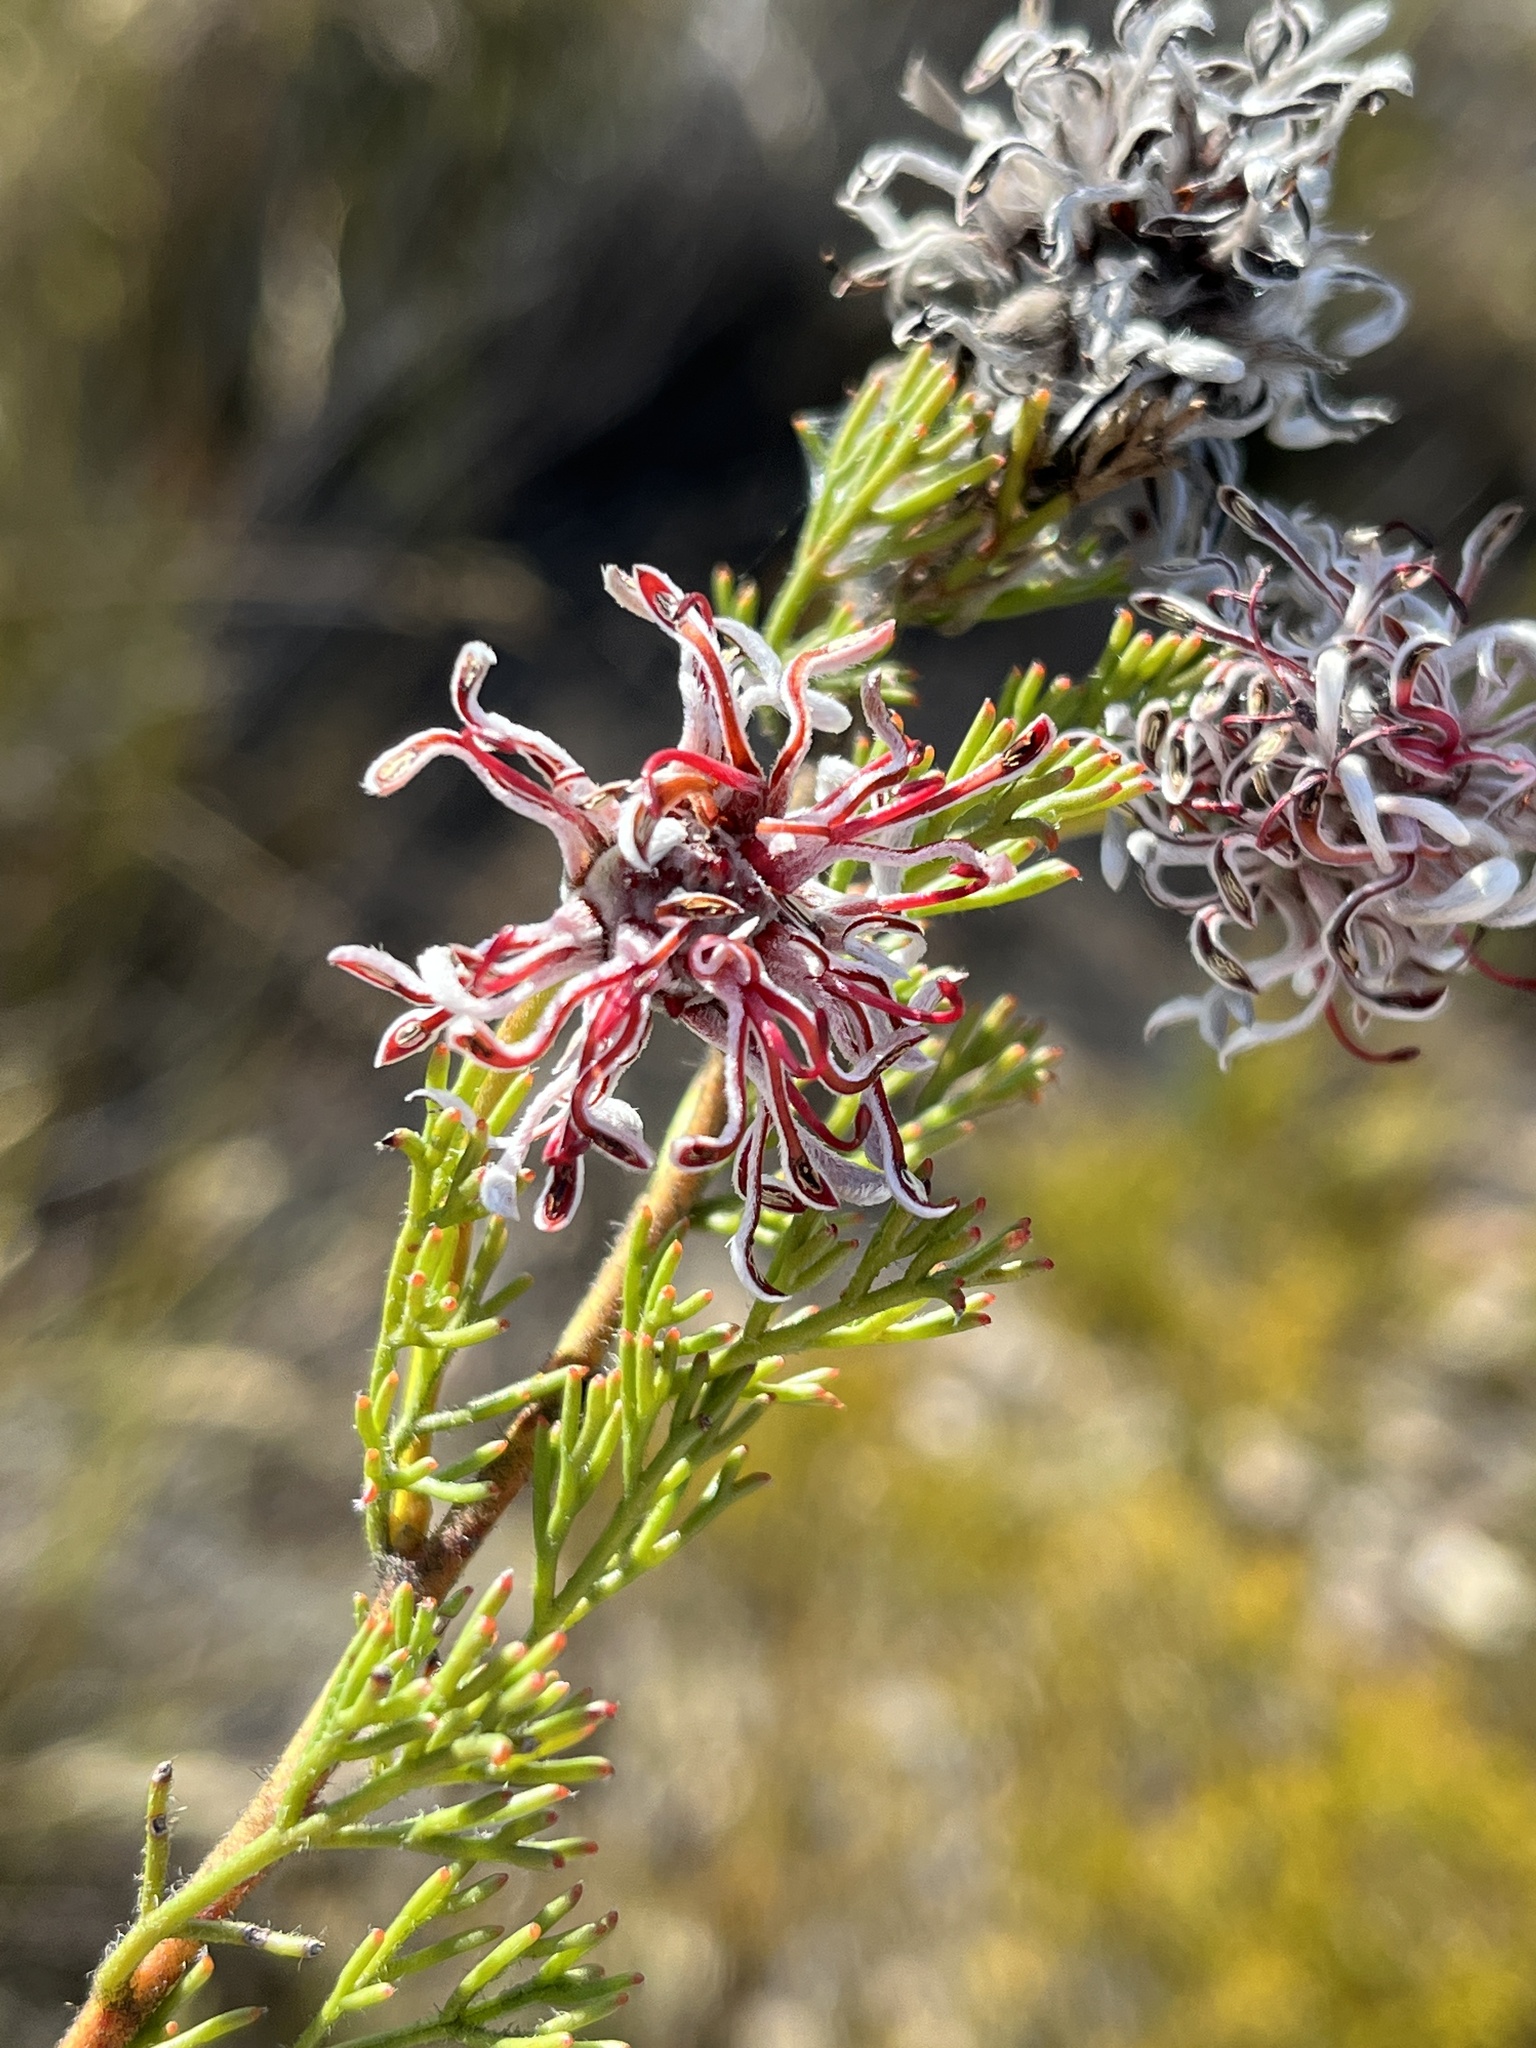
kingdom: Plantae
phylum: Tracheophyta
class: Magnoliopsida
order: Proteales
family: Proteaceae
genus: Serruria
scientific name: Serruria gremialis
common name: Riviersonderend spiderhead
